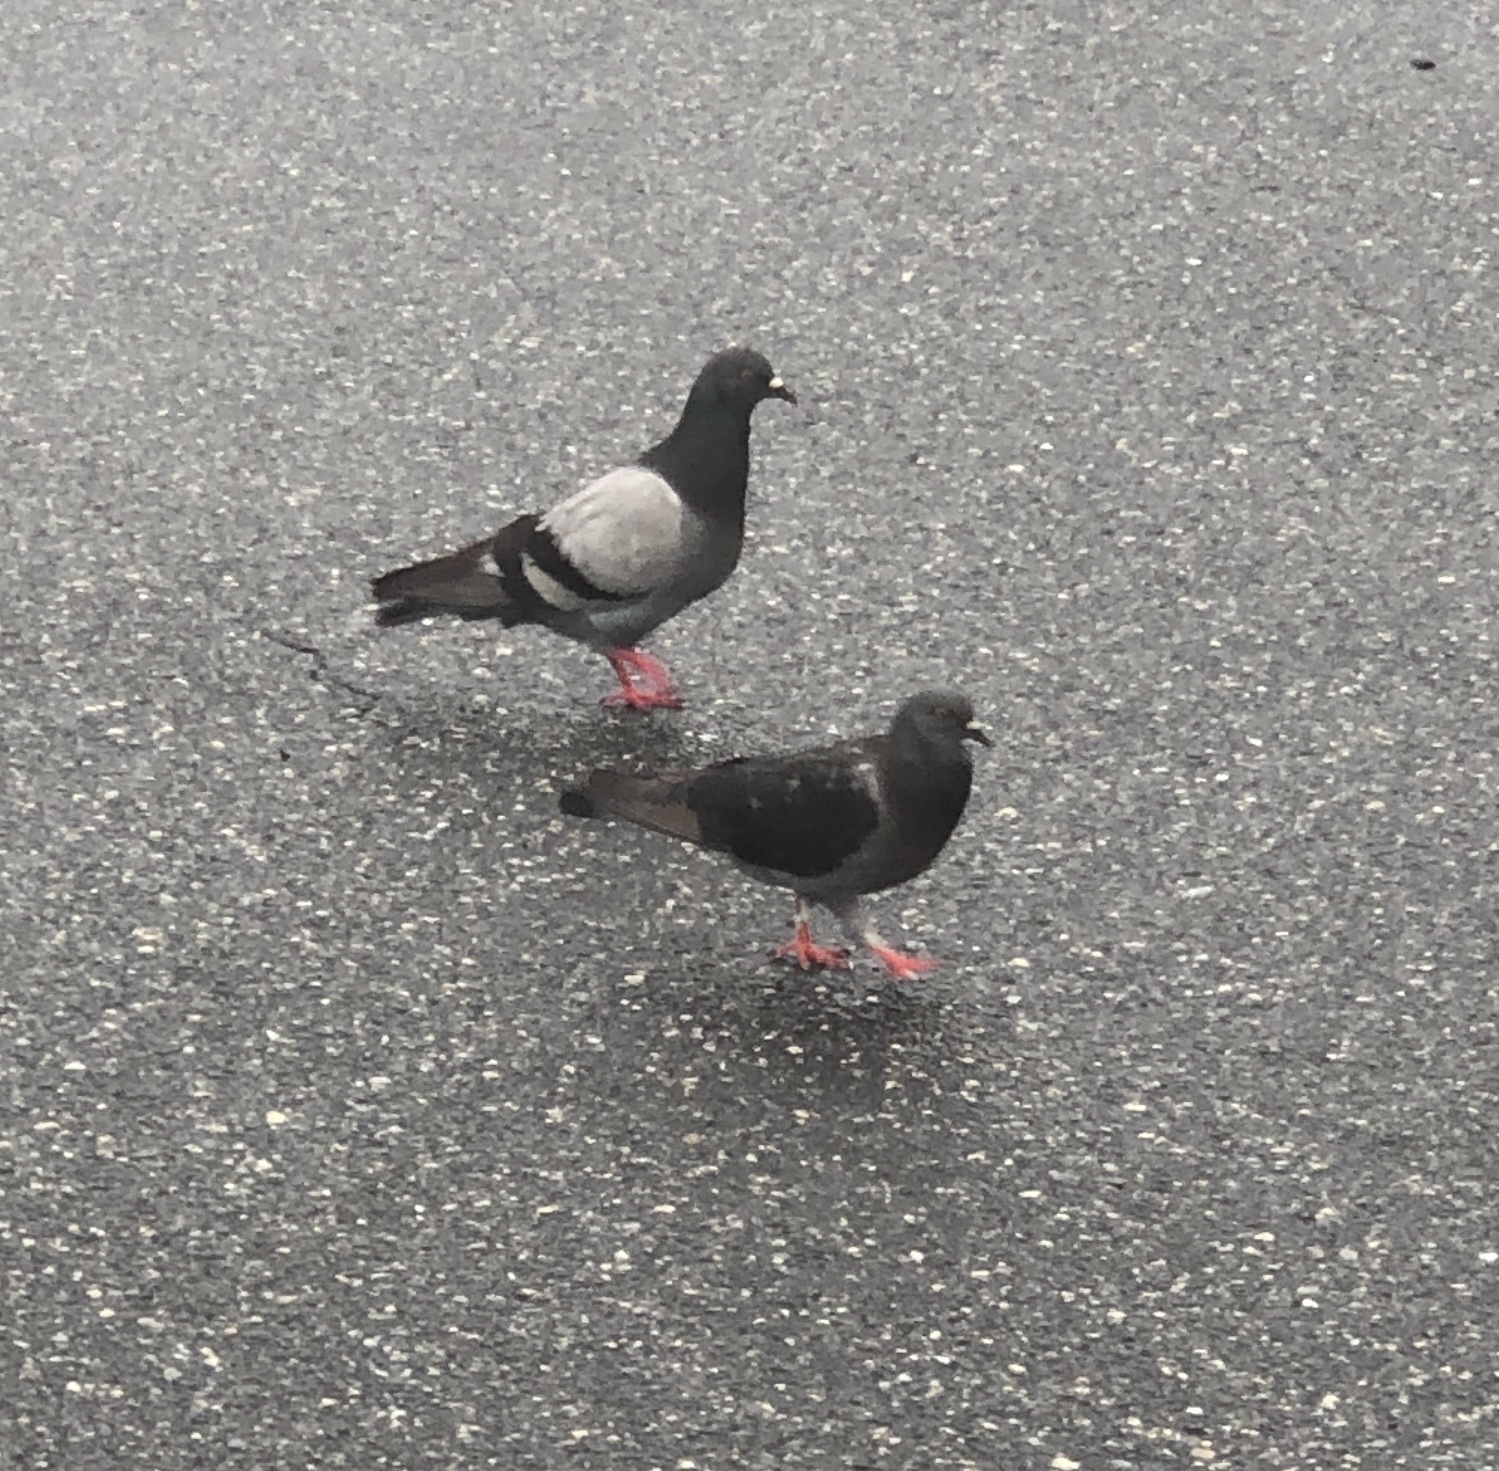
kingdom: Animalia
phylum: Chordata
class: Aves
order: Columbiformes
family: Columbidae
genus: Columba
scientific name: Columba livia
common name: Rock pigeon
